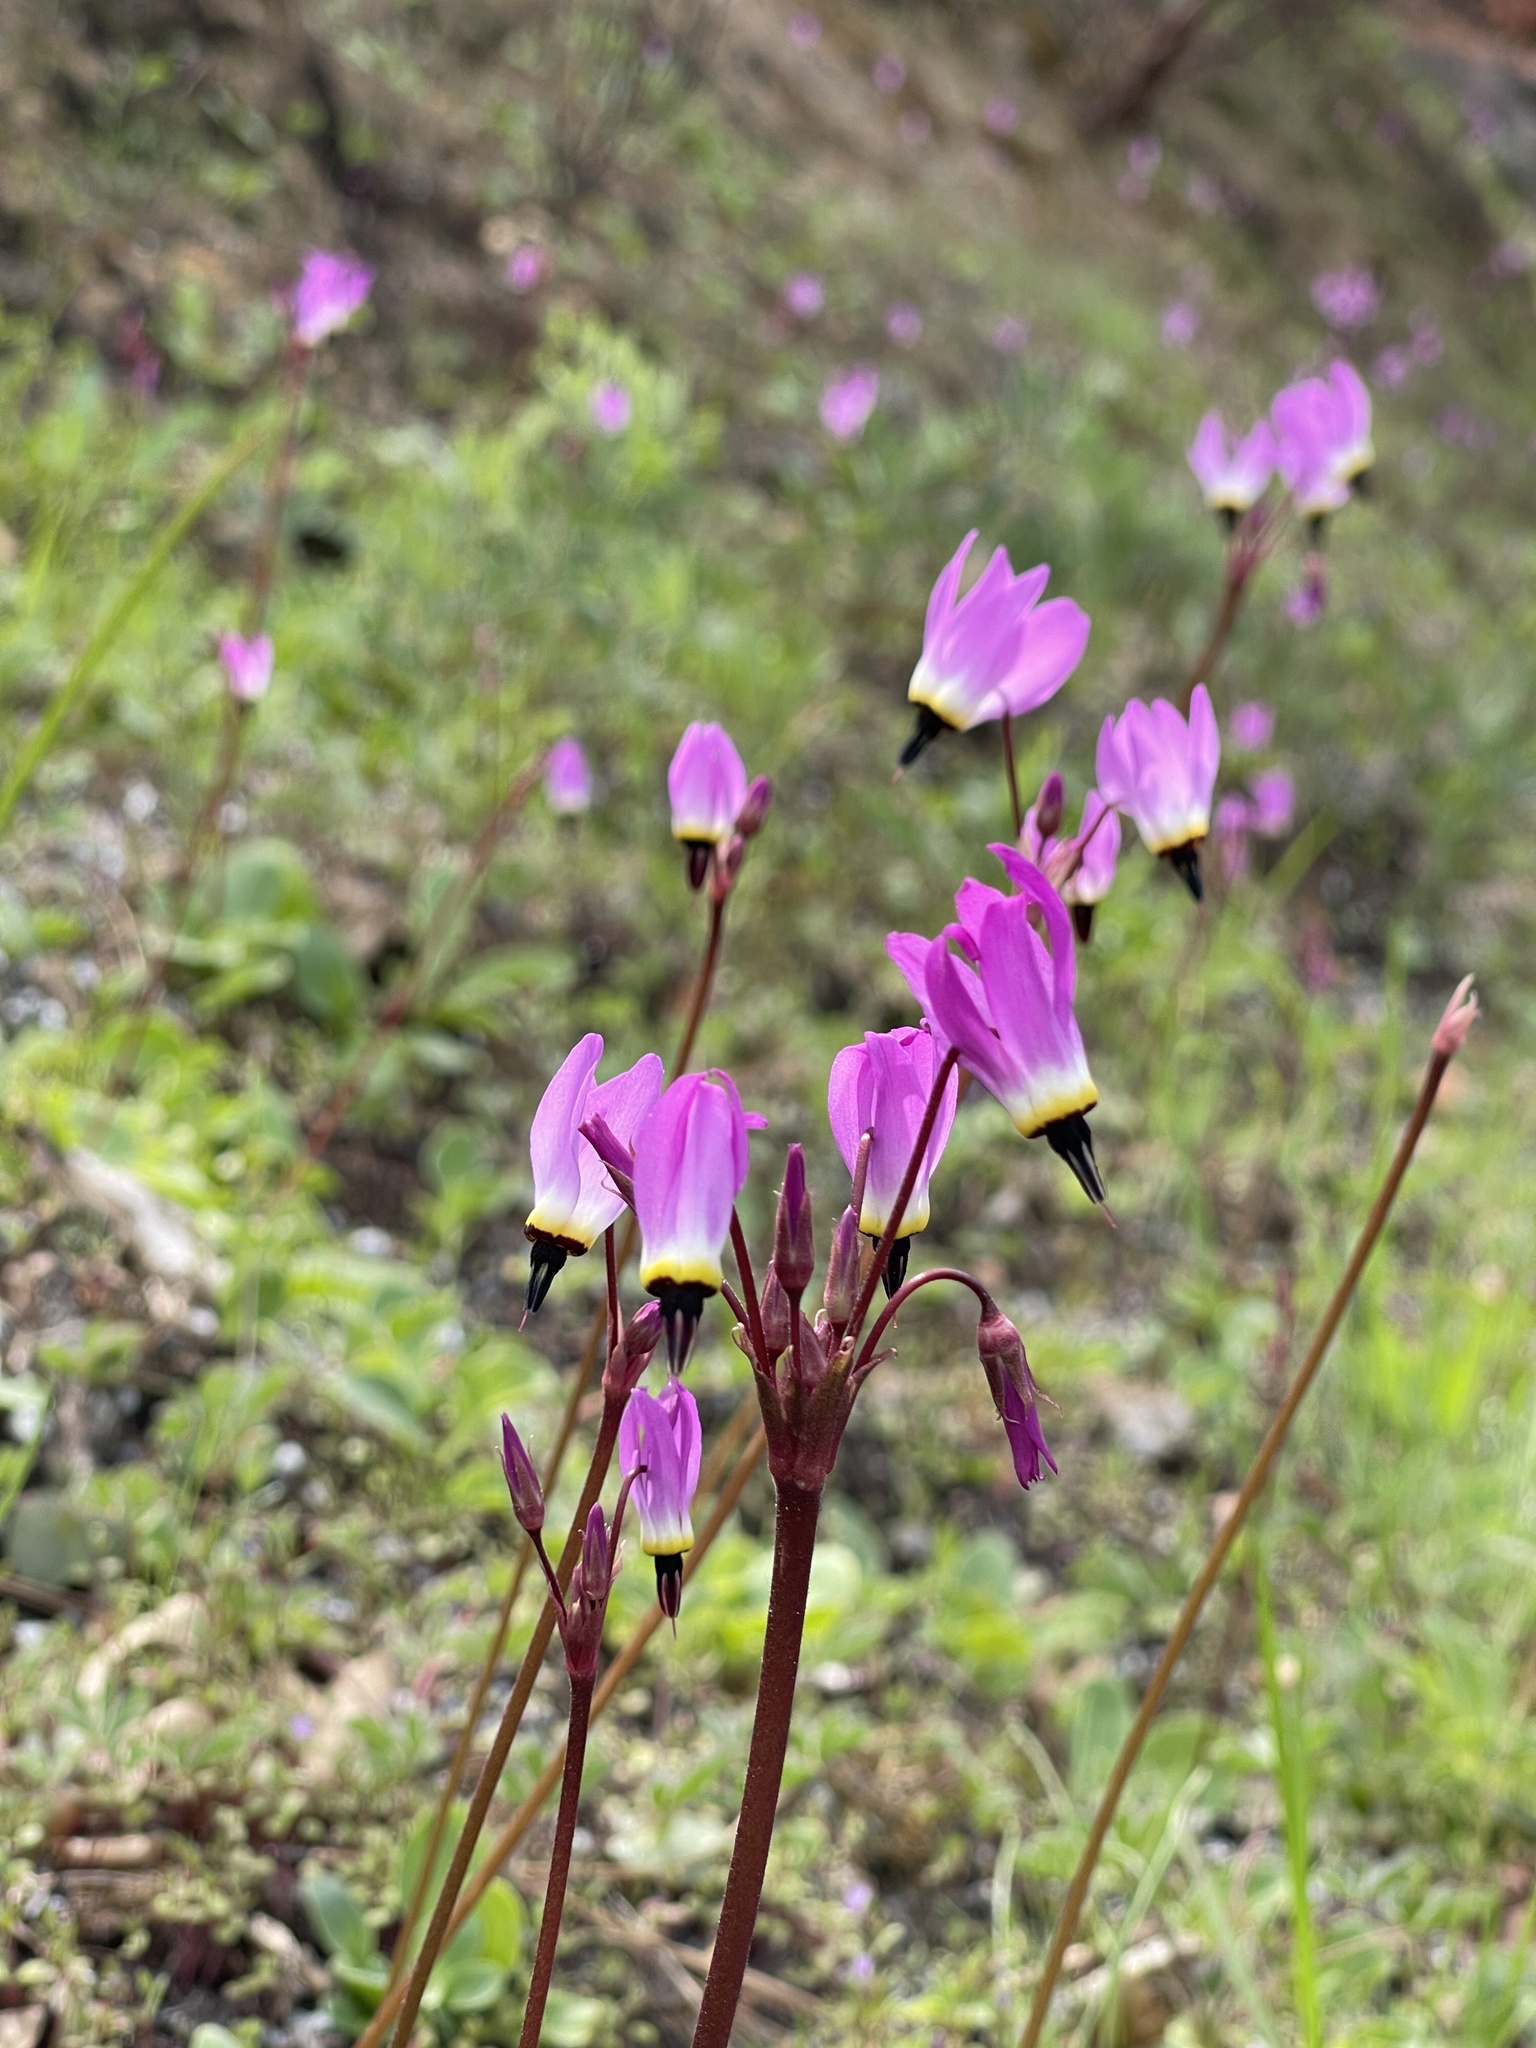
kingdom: Plantae
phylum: Tracheophyta
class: Magnoliopsida
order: Ericales
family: Primulaceae
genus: Dodecatheon
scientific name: Dodecatheon hendersonii
